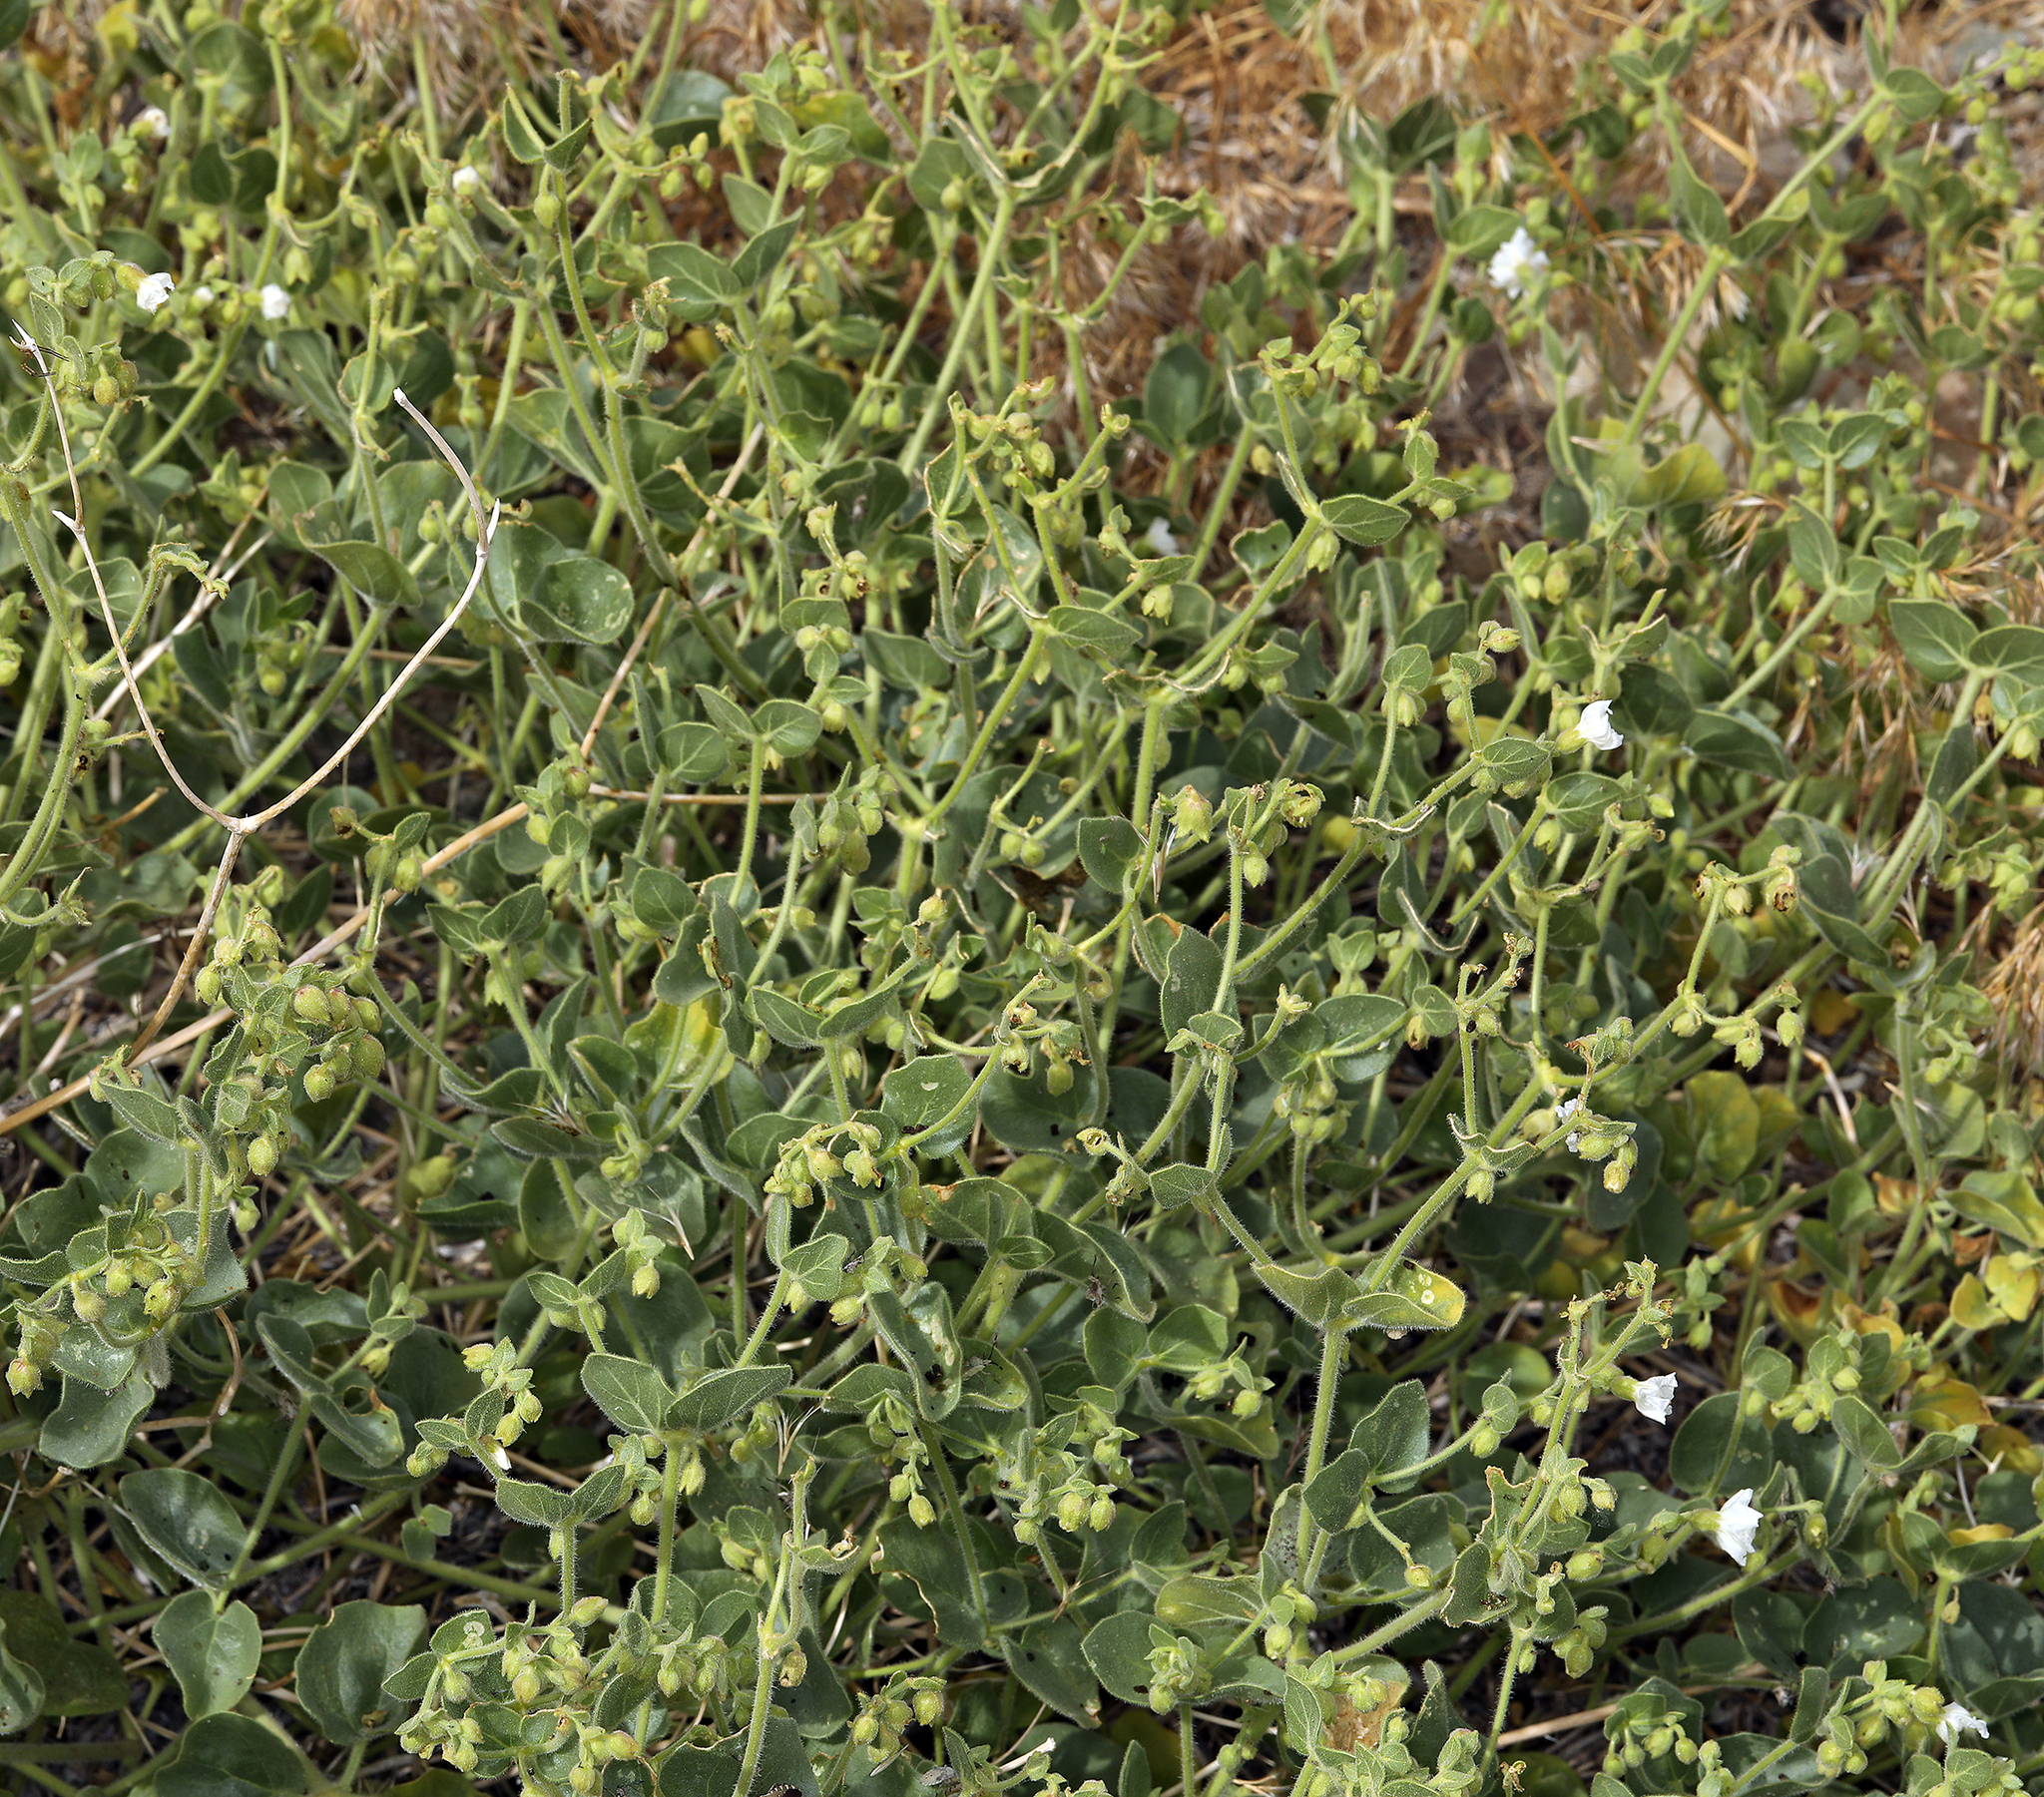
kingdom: Plantae
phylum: Tracheophyta
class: Magnoliopsida
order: Caryophyllales
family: Nyctaginaceae
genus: Mirabilis
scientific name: Mirabilis laevis
